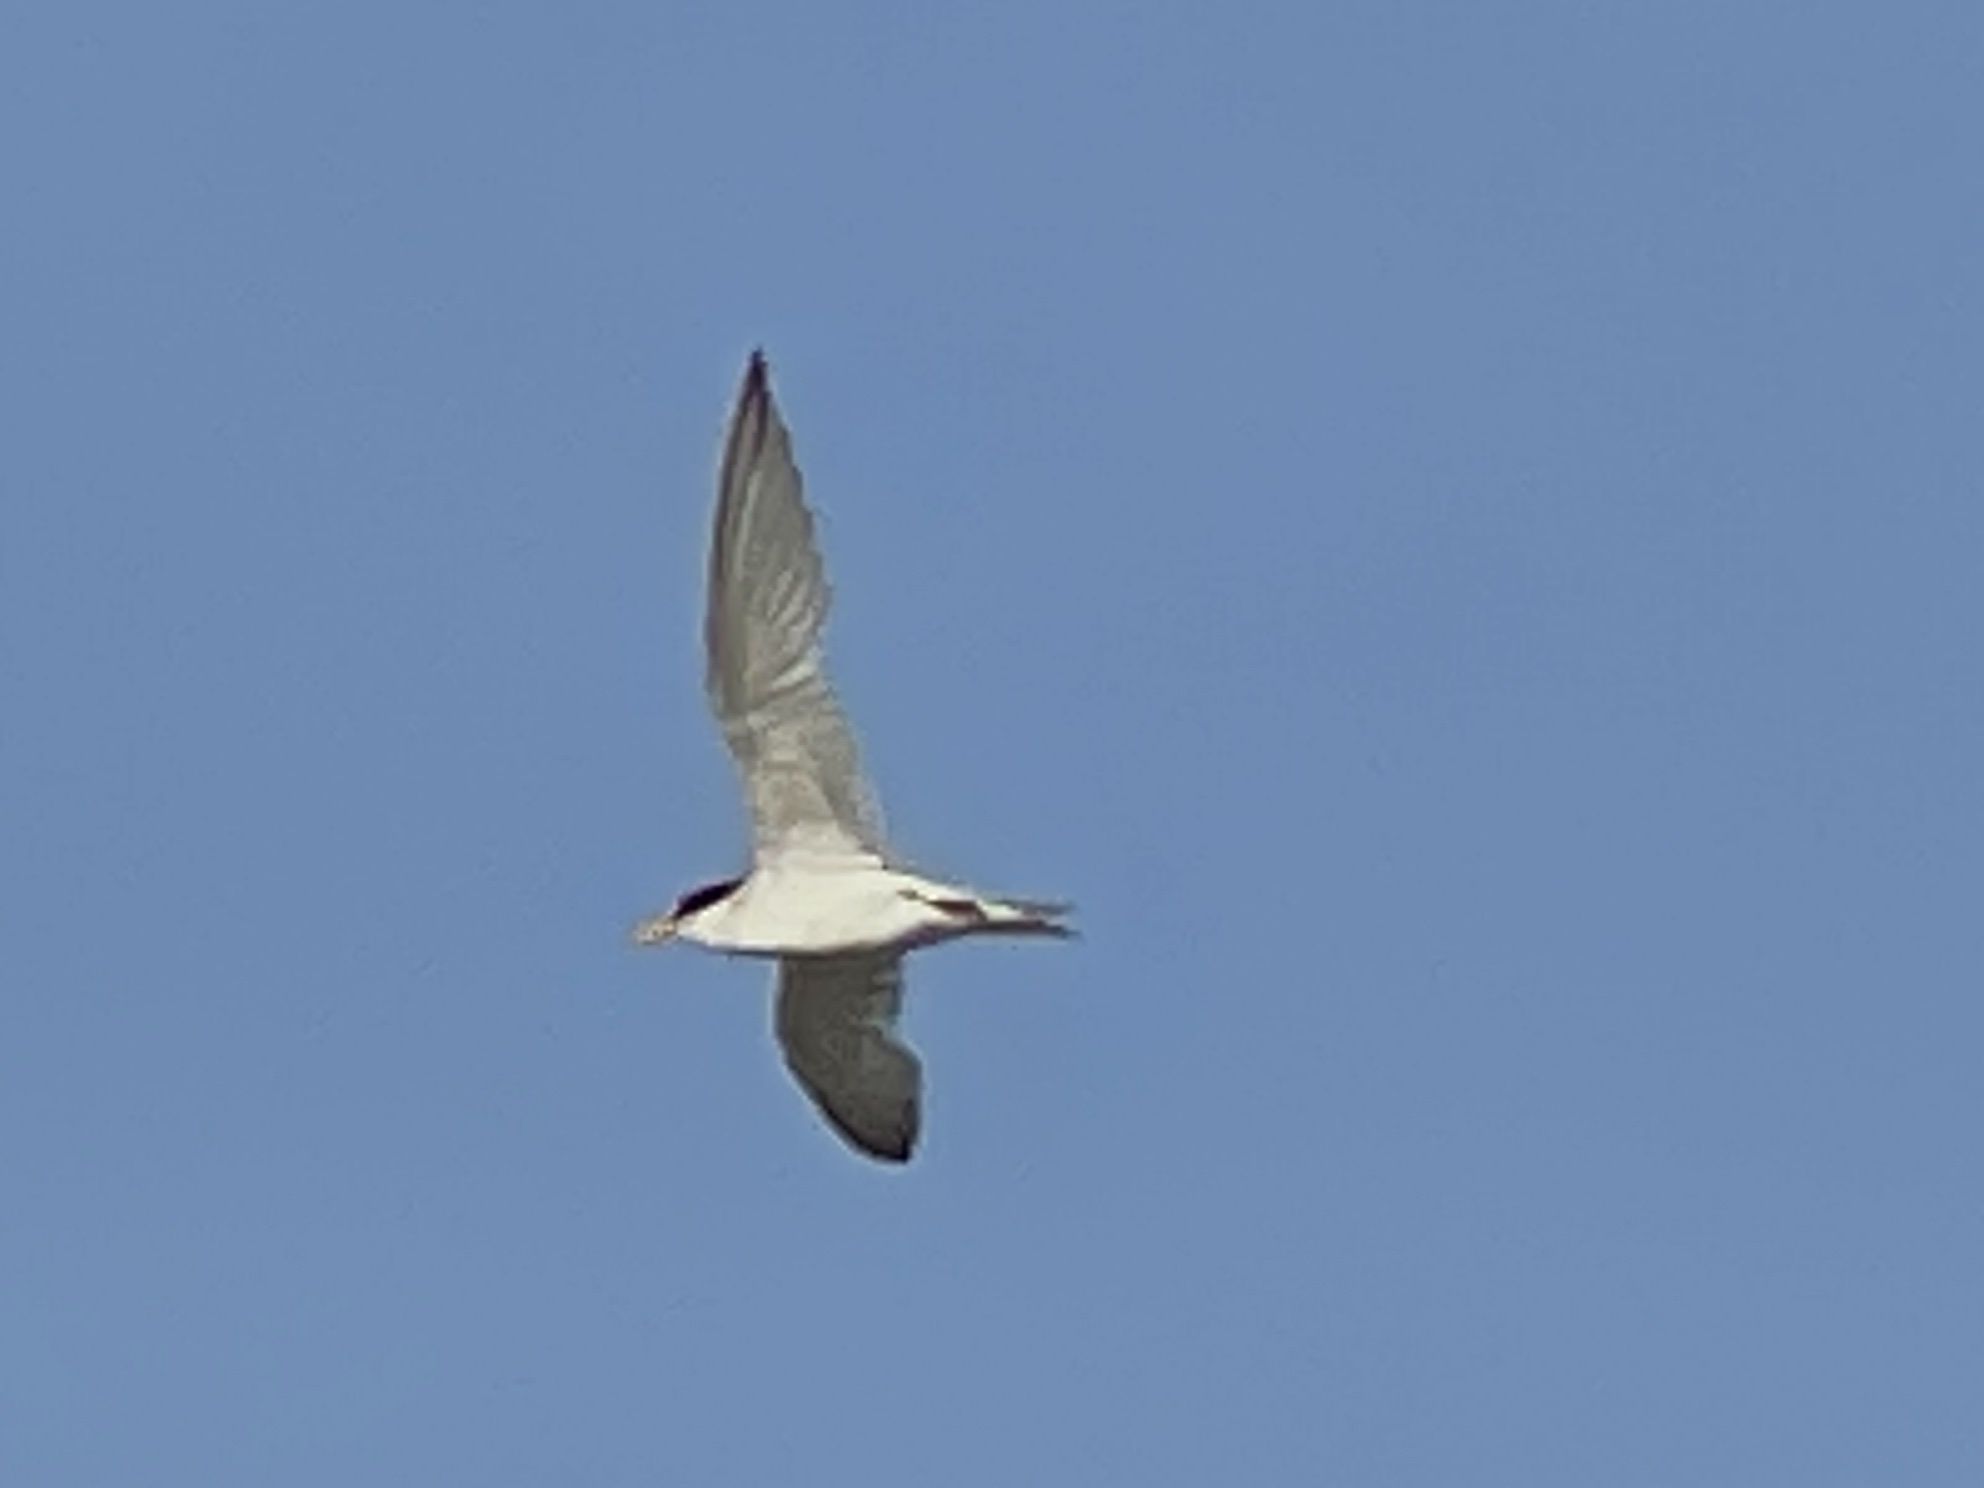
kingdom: Animalia
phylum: Chordata
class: Aves
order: Charadriiformes
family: Laridae
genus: Sternula
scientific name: Sternula antillarum
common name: Least tern
